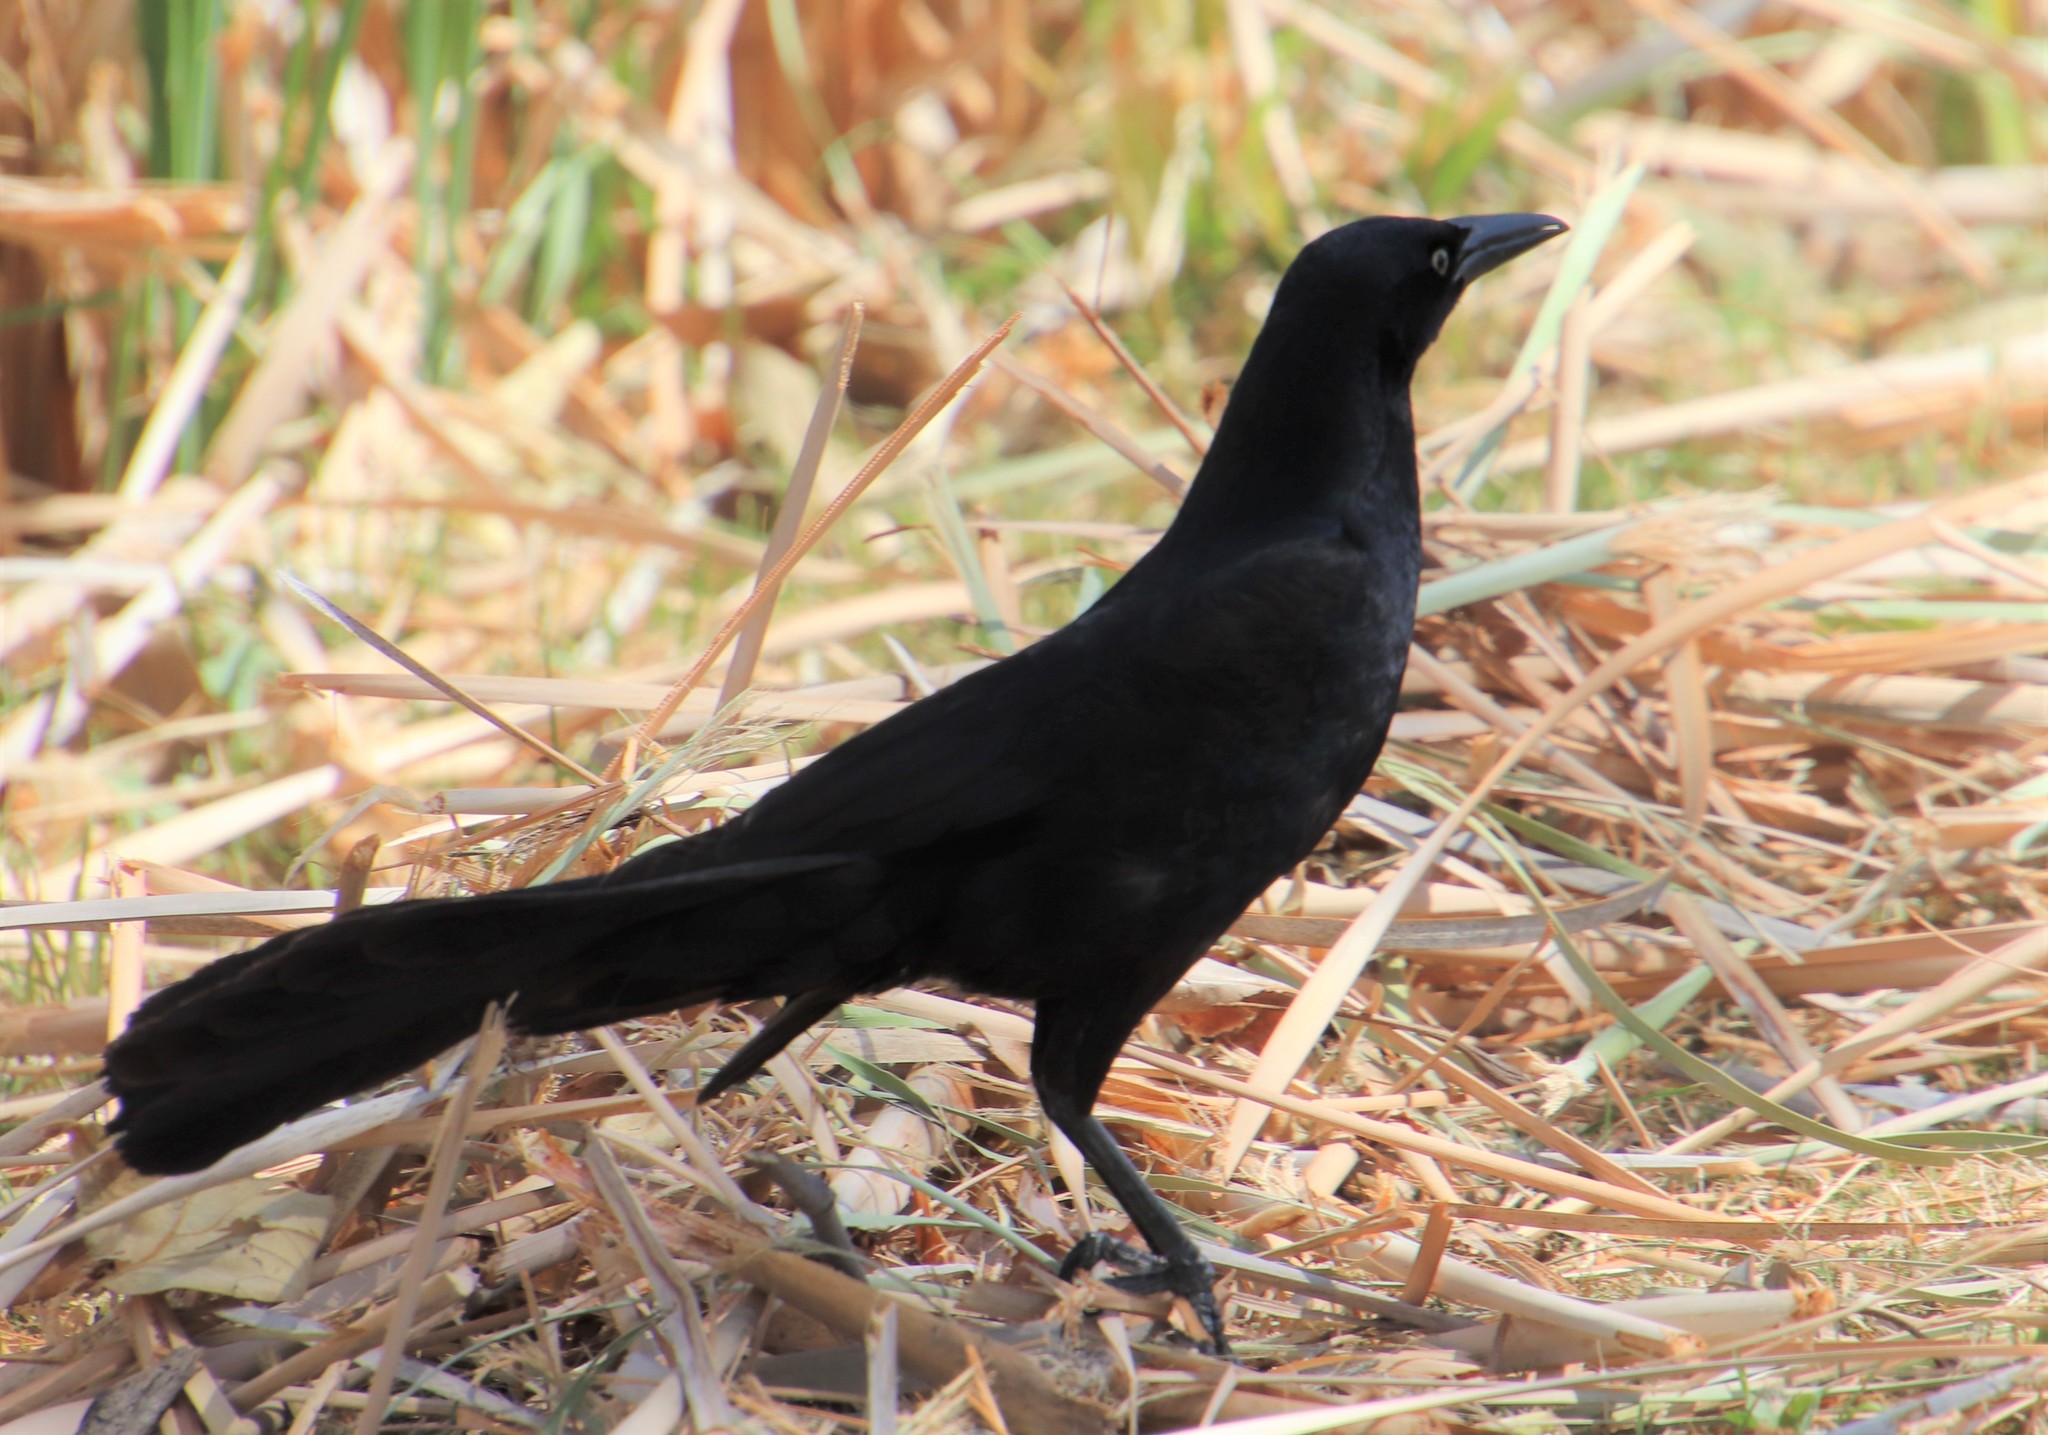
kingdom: Animalia
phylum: Chordata
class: Aves
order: Passeriformes
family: Icteridae
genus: Quiscalus
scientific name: Quiscalus mexicanus
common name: Great-tailed grackle
